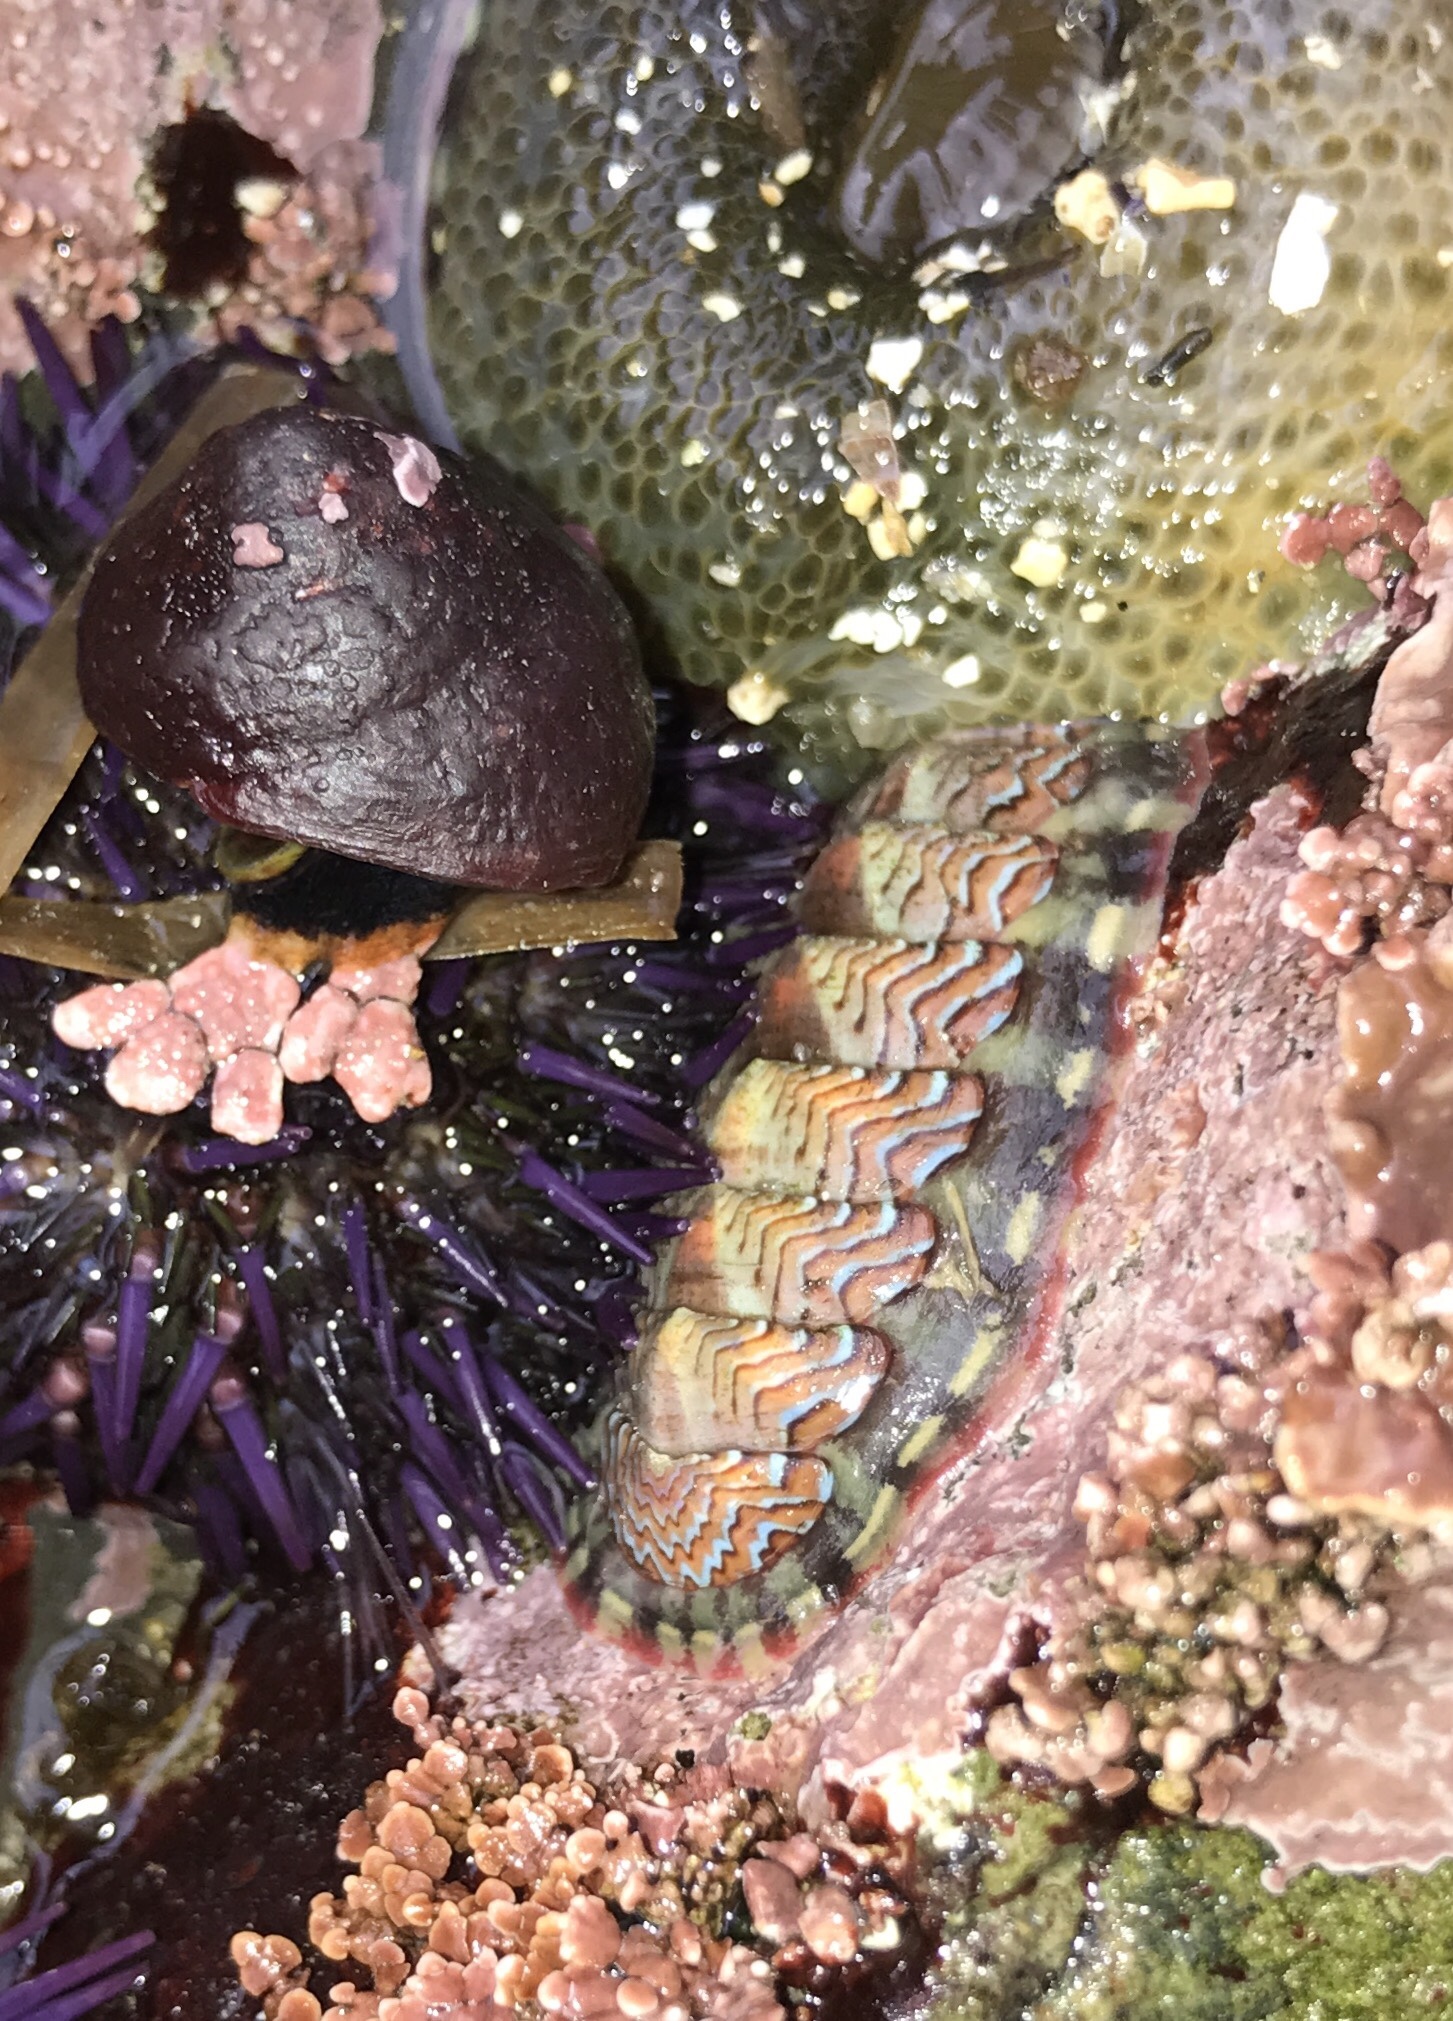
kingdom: Animalia
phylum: Mollusca
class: Polyplacophora
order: Chitonida
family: Tonicellidae
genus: Tonicella
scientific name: Tonicella lokii
